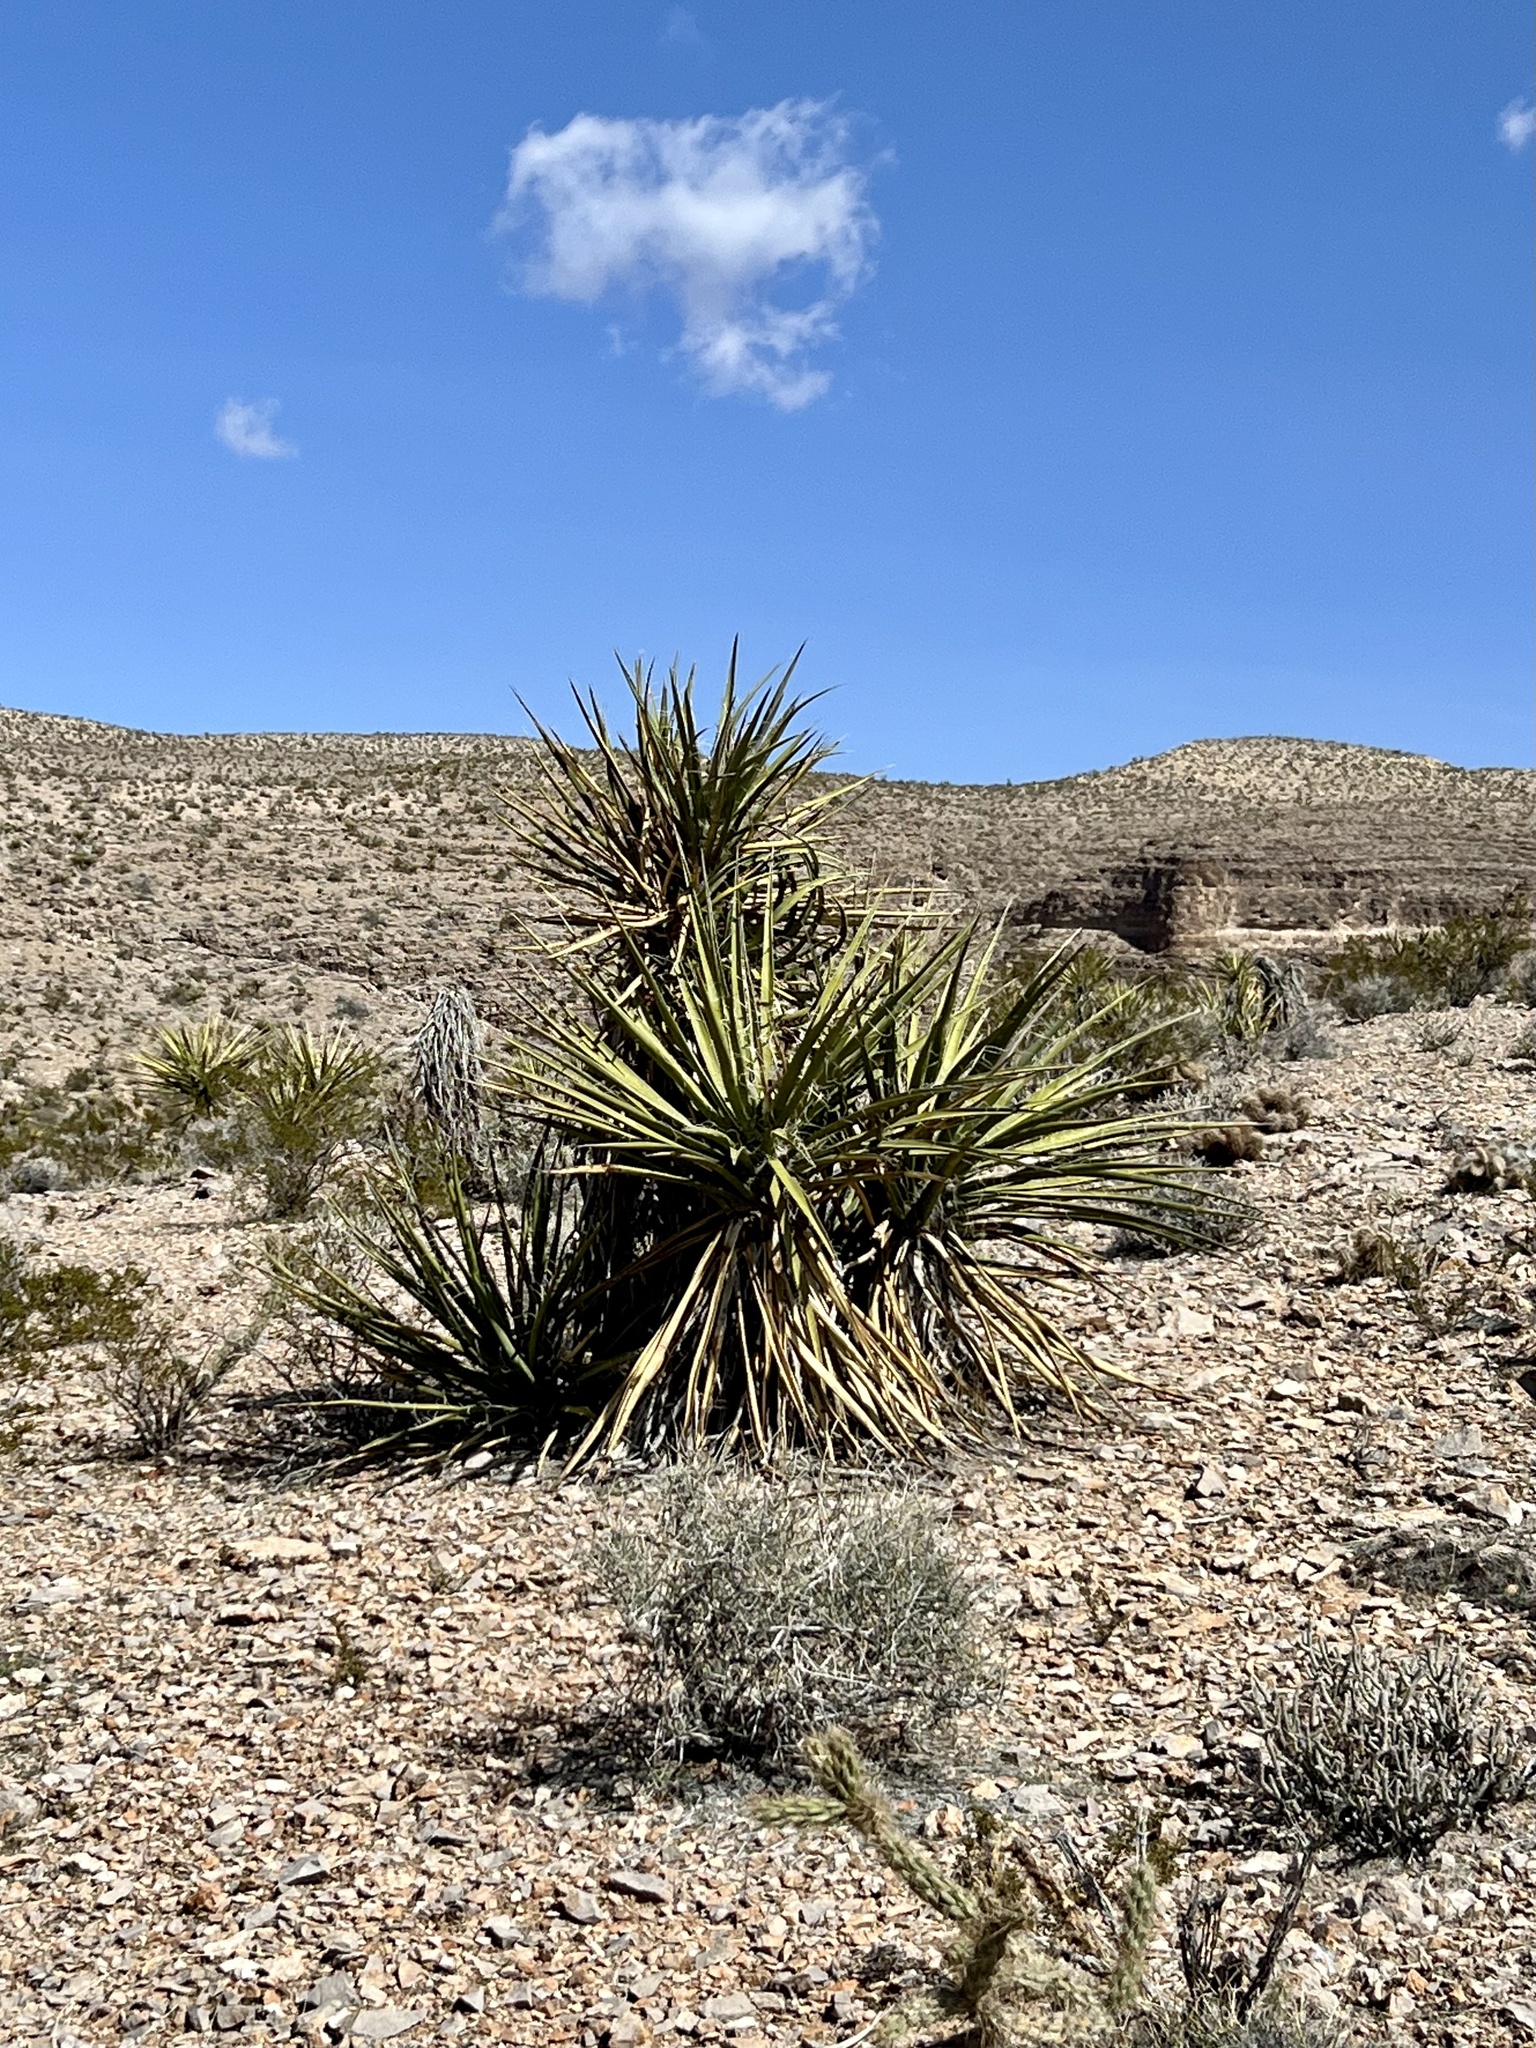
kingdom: Plantae
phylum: Tracheophyta
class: Liliopsida
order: Asparagales
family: Asparagaceae
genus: Yucca
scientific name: Yucca schidigera
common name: Mojave yucca
